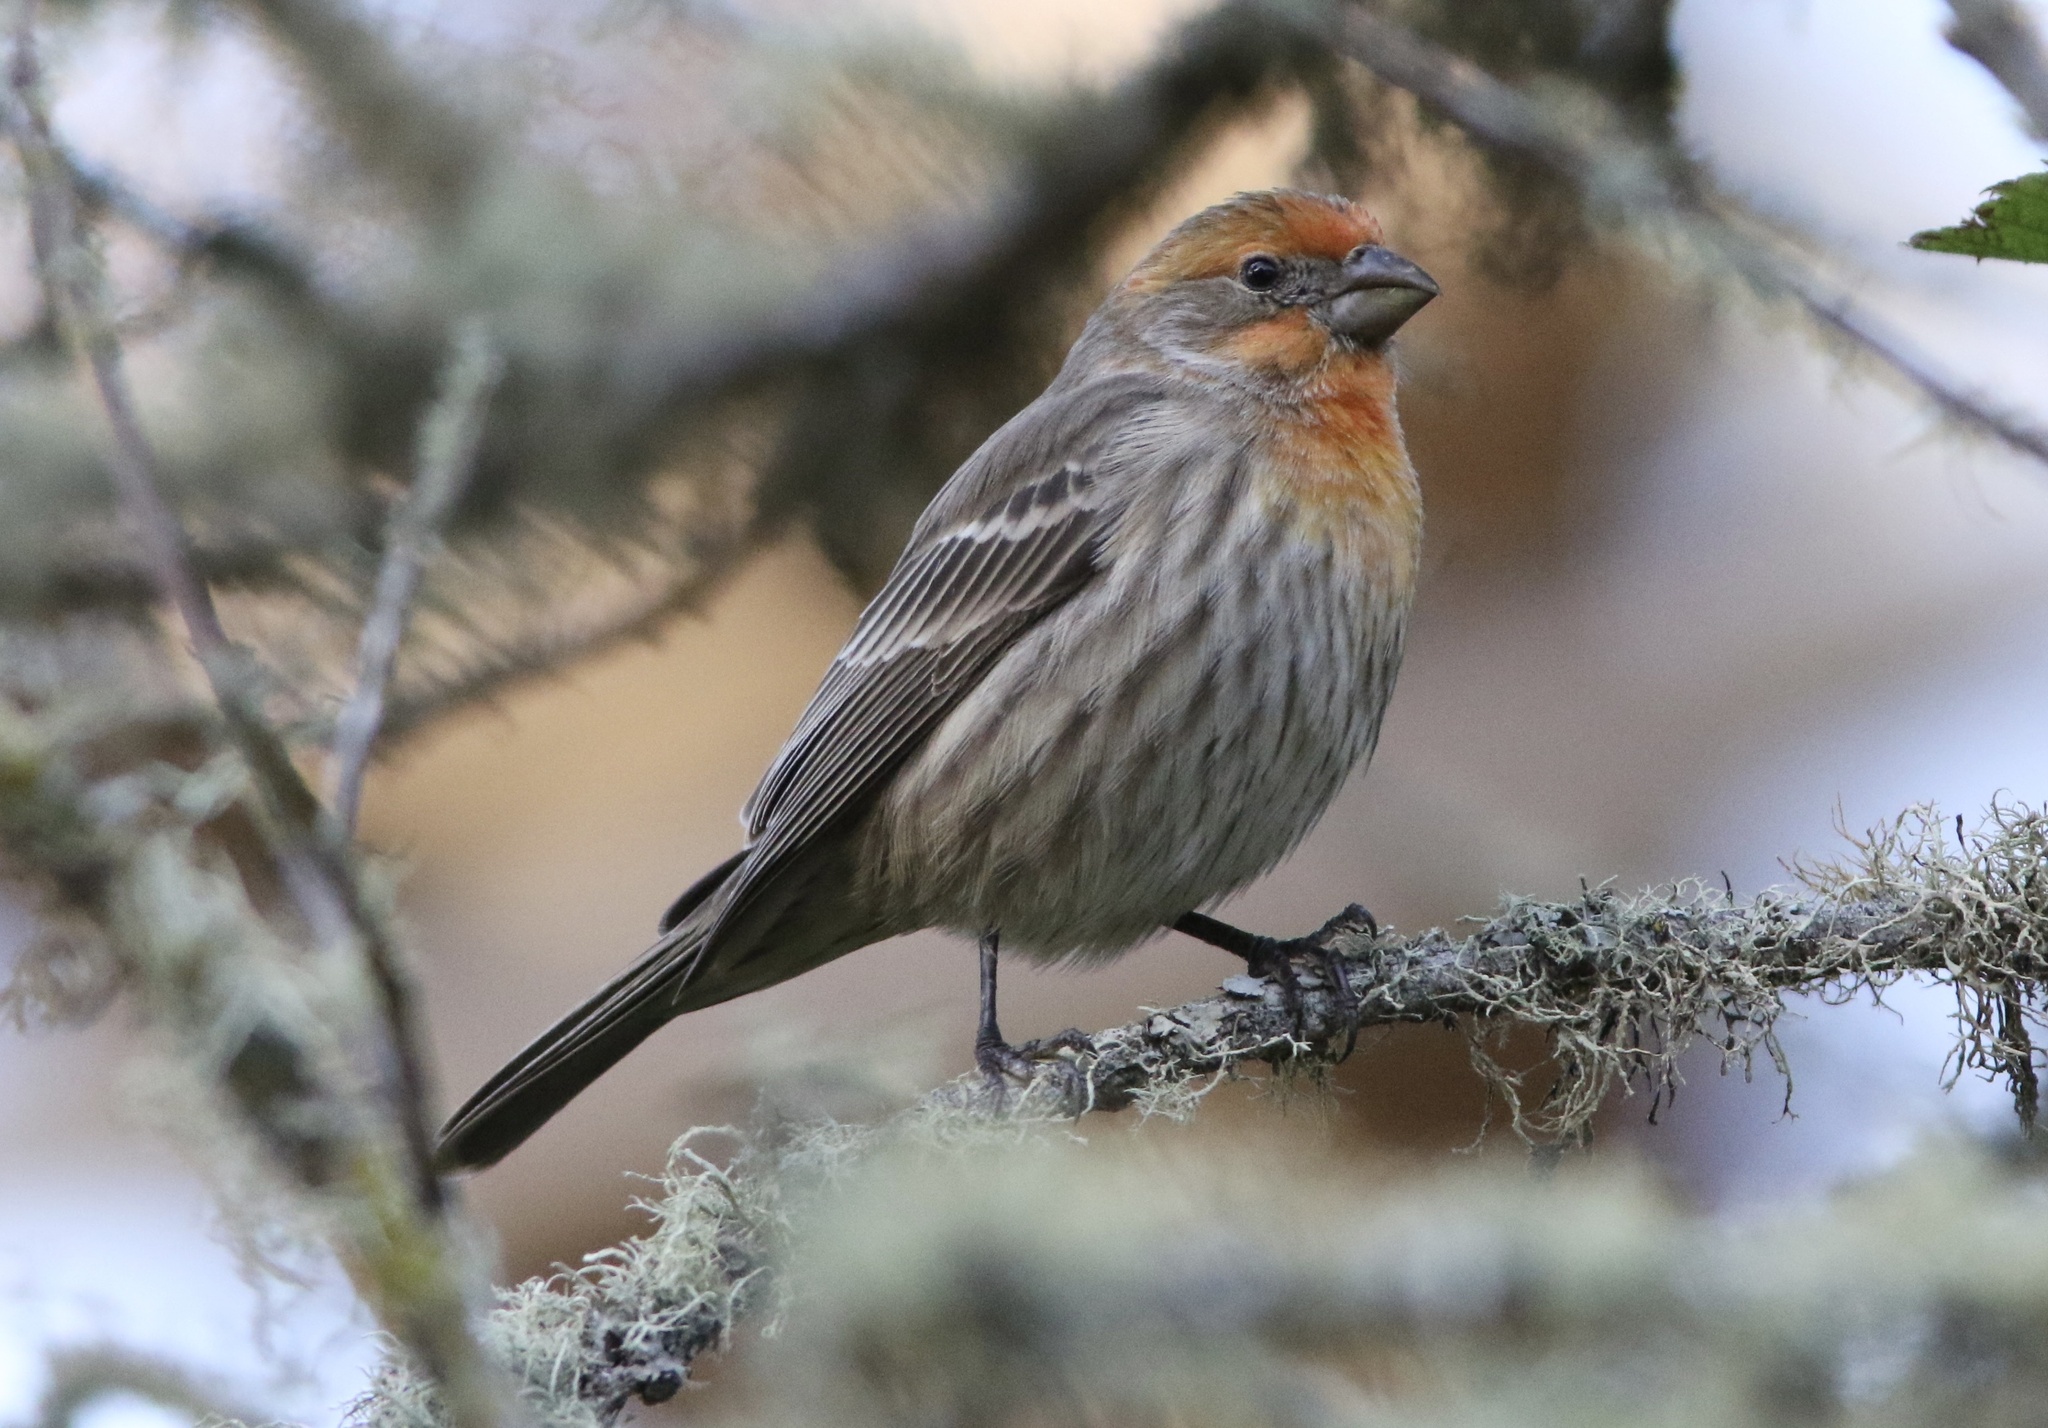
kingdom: Animalia
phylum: Chordata
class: Aves
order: Passeriformes
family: Fringillidae
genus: Haemorhous
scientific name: Haemorhous mexicanus
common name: House finch
